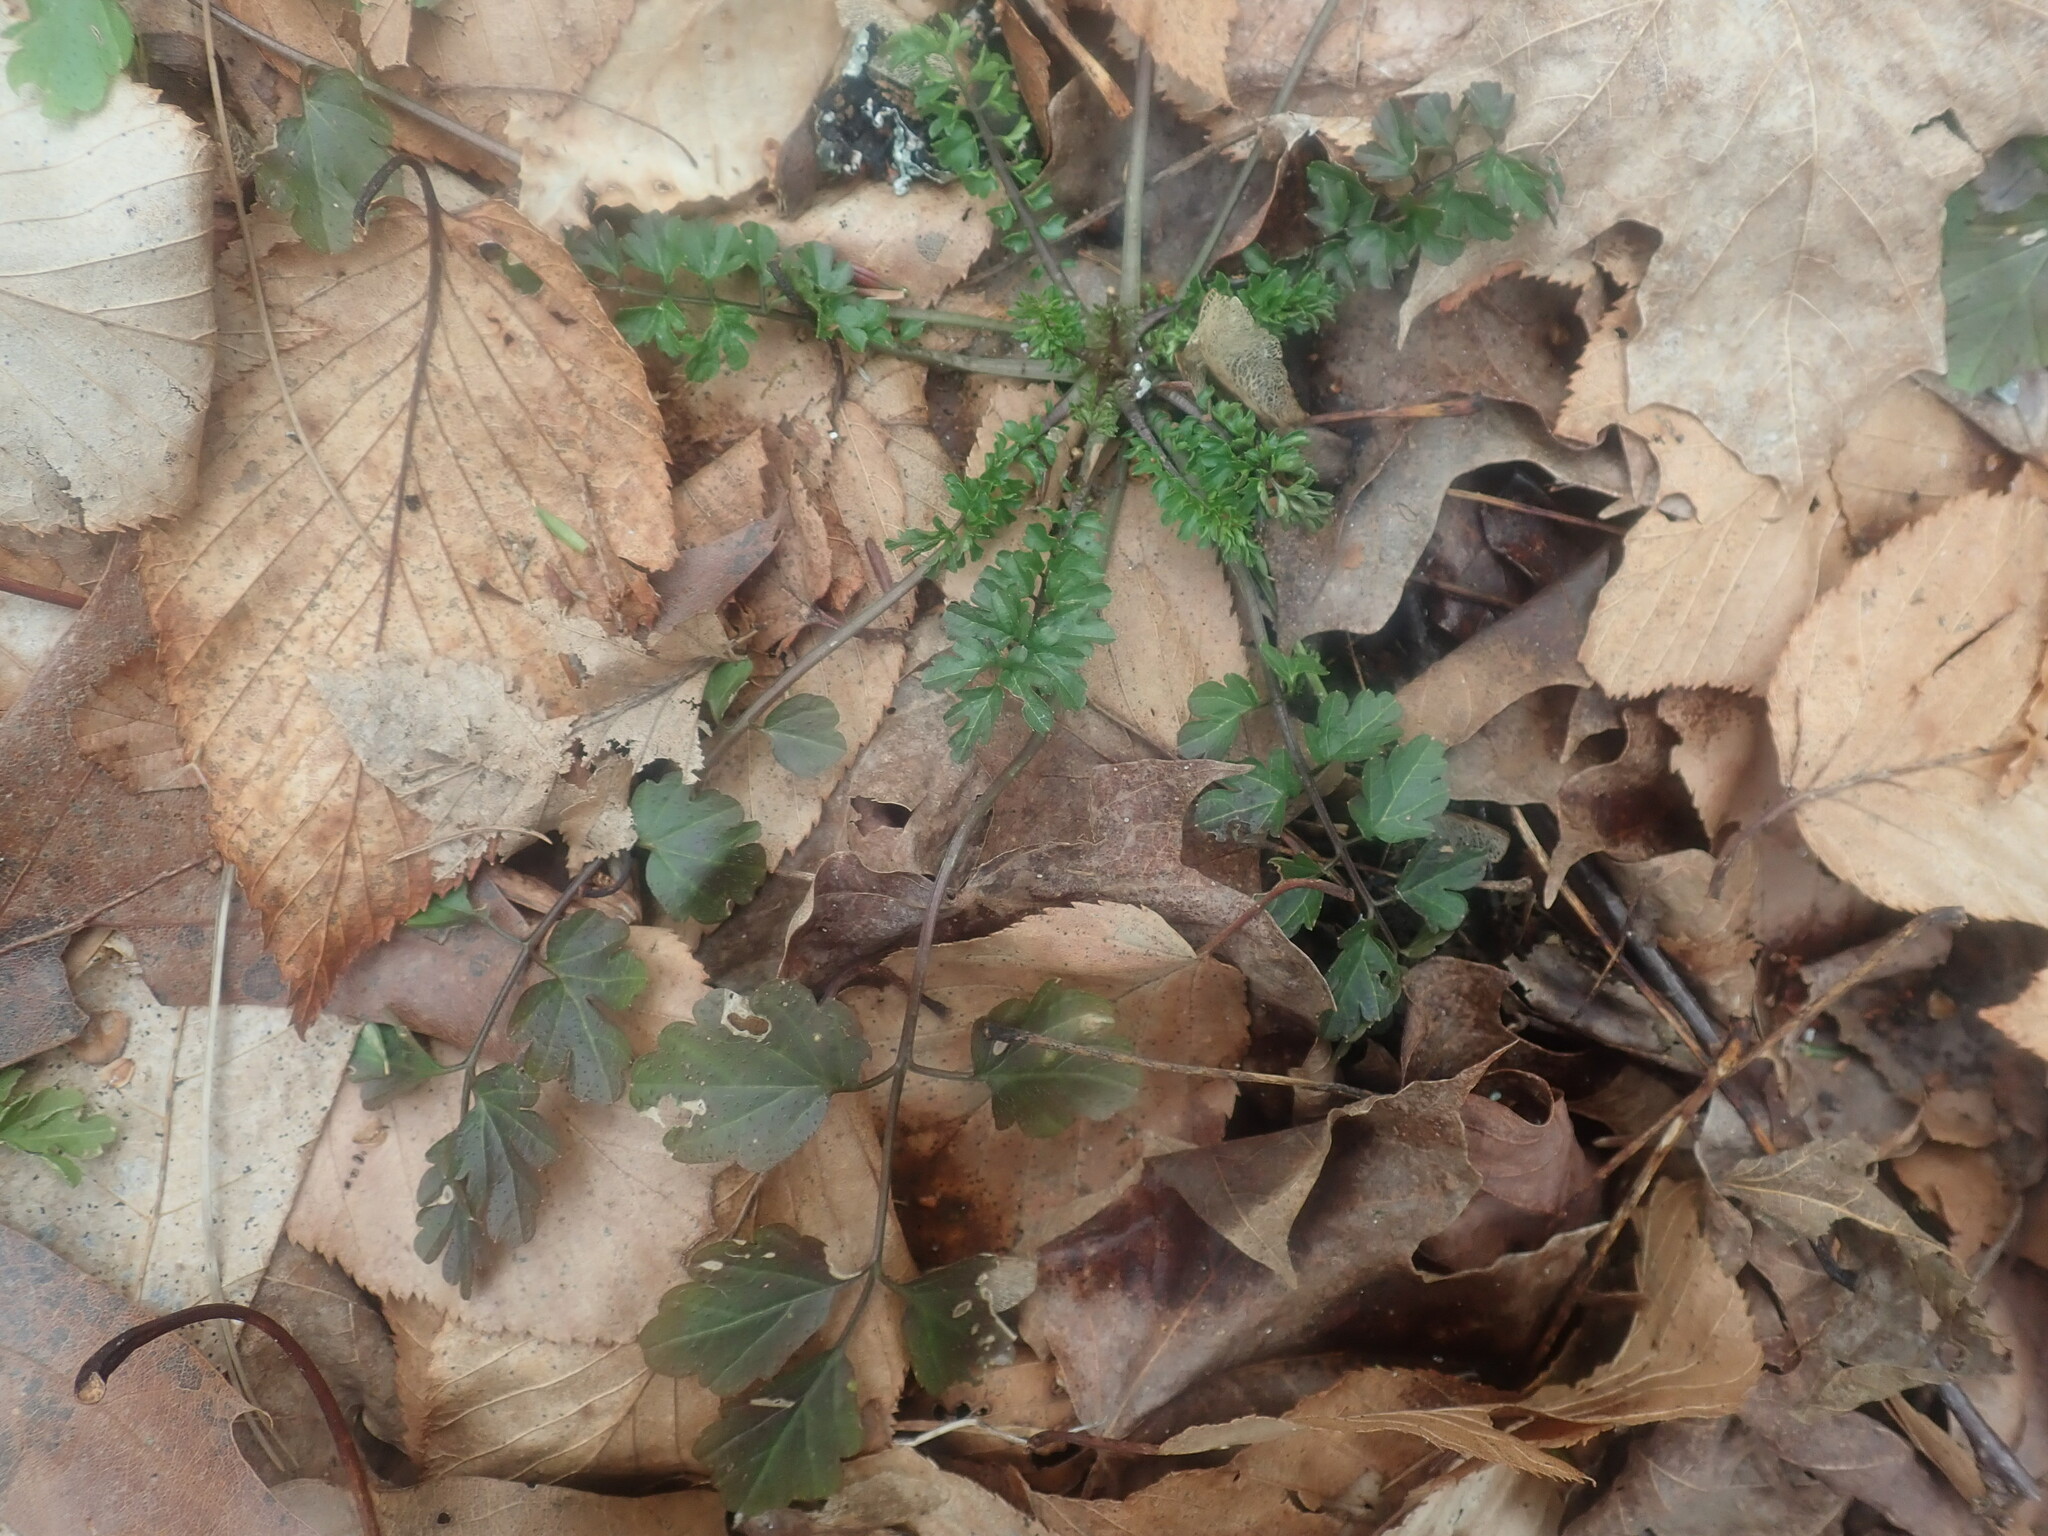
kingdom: Plantae
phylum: Tracheophyta
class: Magnoliopsida
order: Brassicales
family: Brassicaceae
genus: Cardamine
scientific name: Cardamine impatiens
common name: Narrow-leaved bitter-cress
